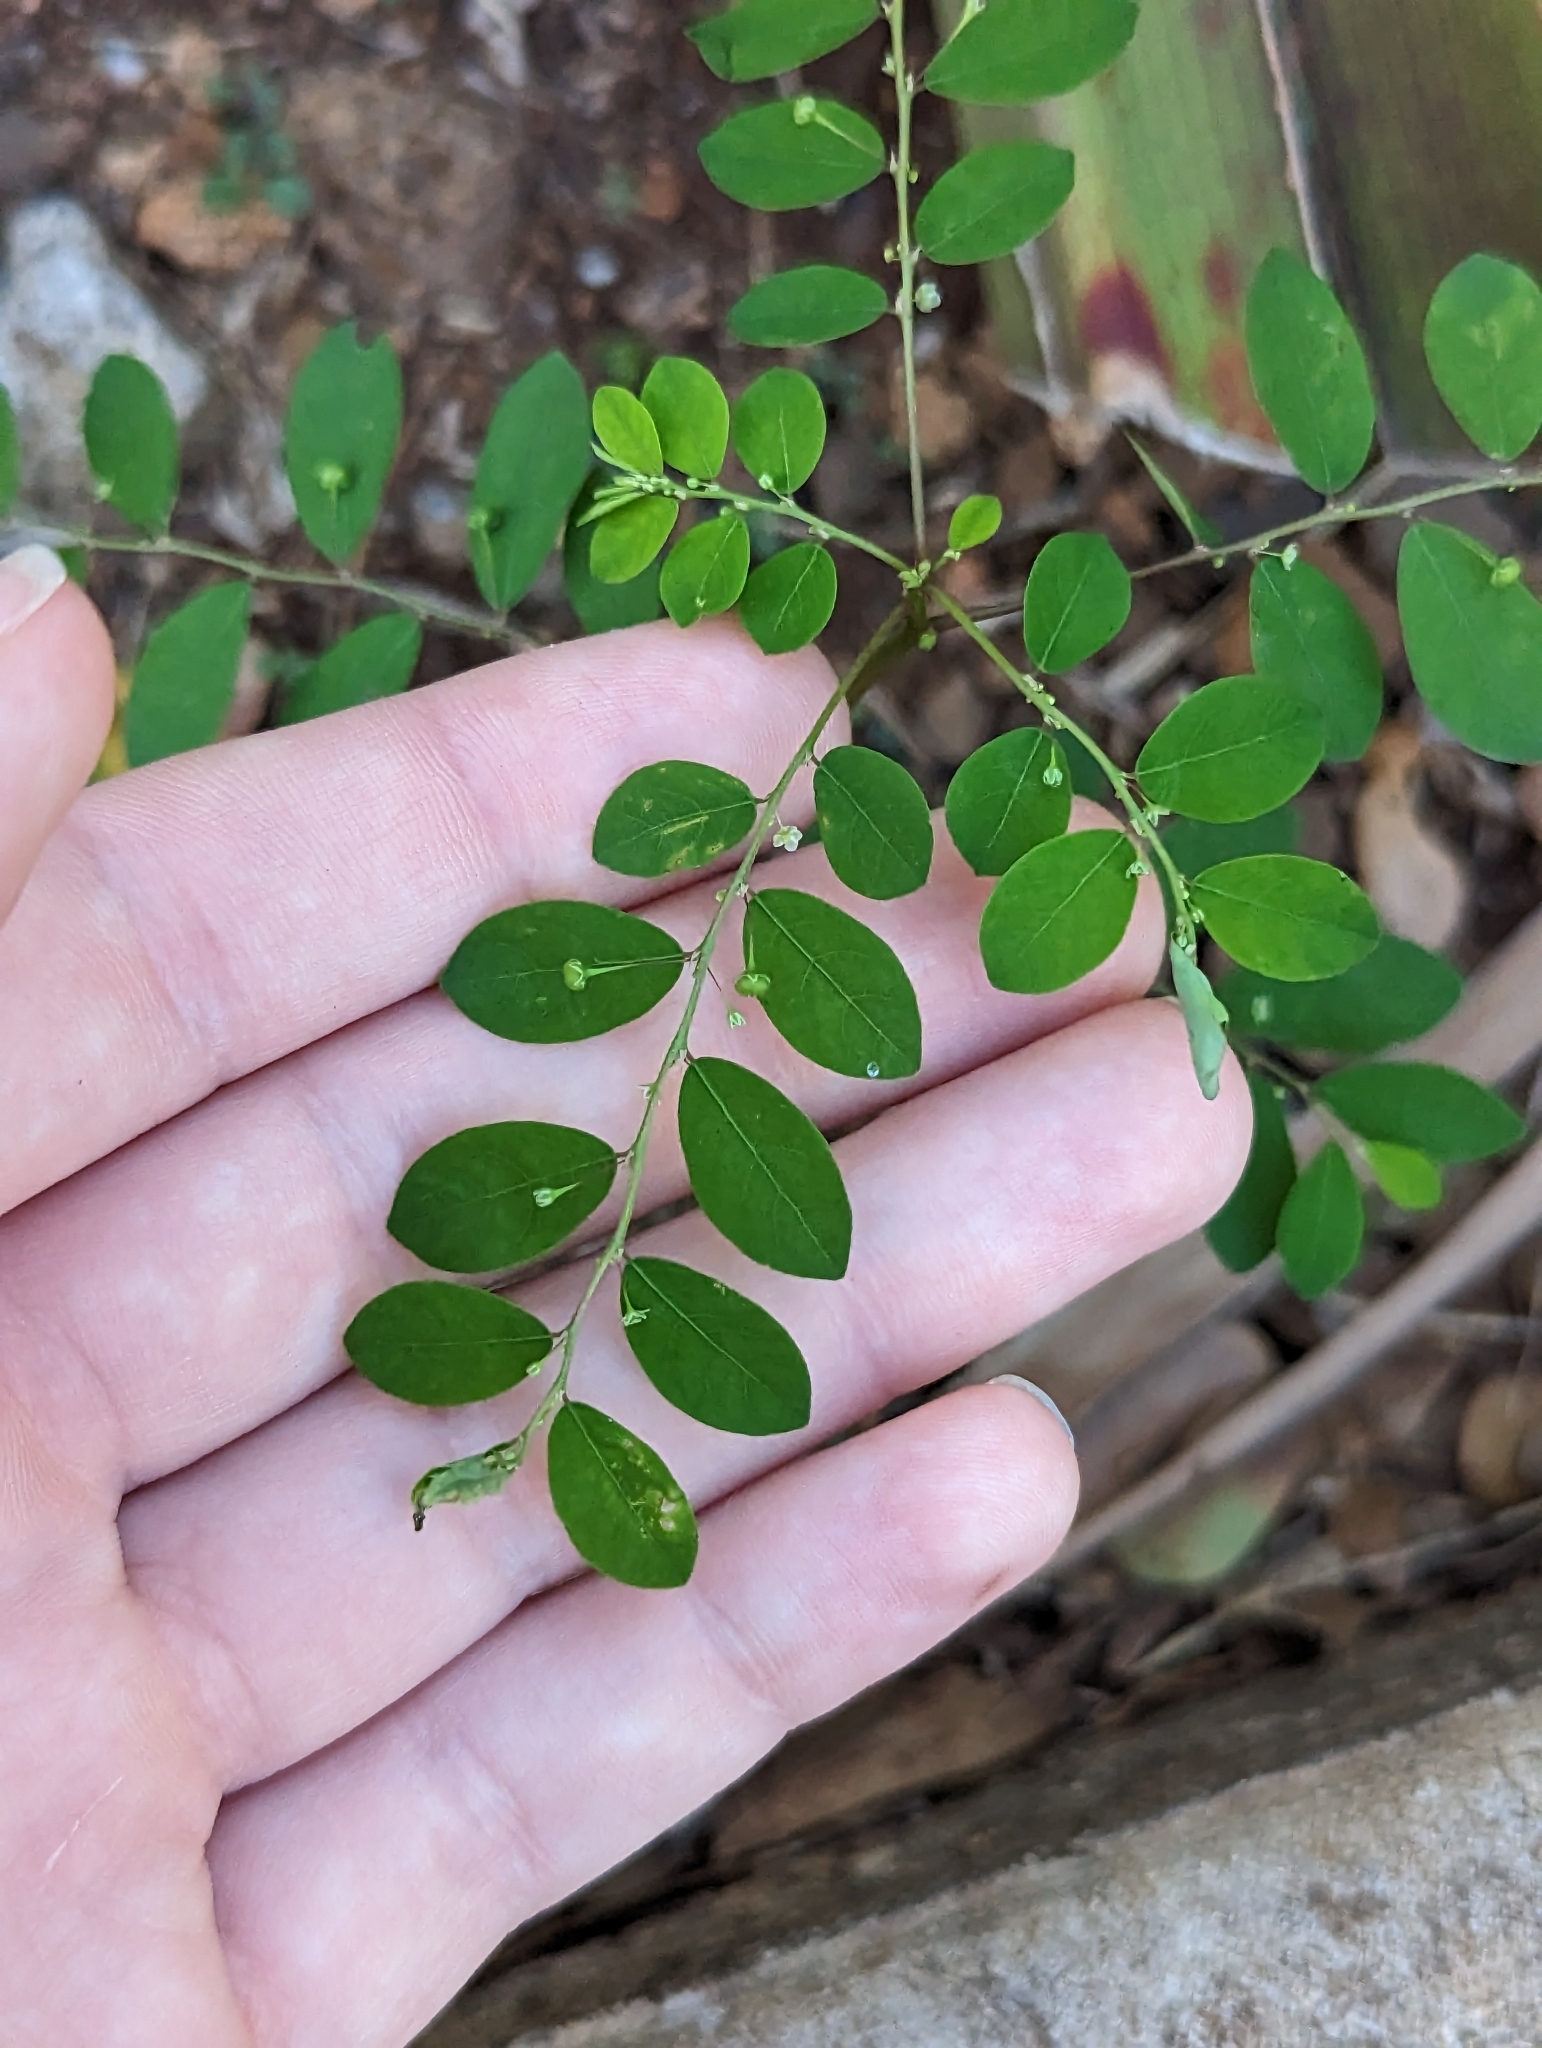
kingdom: Plantae
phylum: Tracheophyta
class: Magnoliopsida
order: Malpighiales
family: Phyllanthaceae
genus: Phyllanthus
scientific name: Phyllanthus tenellus
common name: Mascarene island leaf-flower
